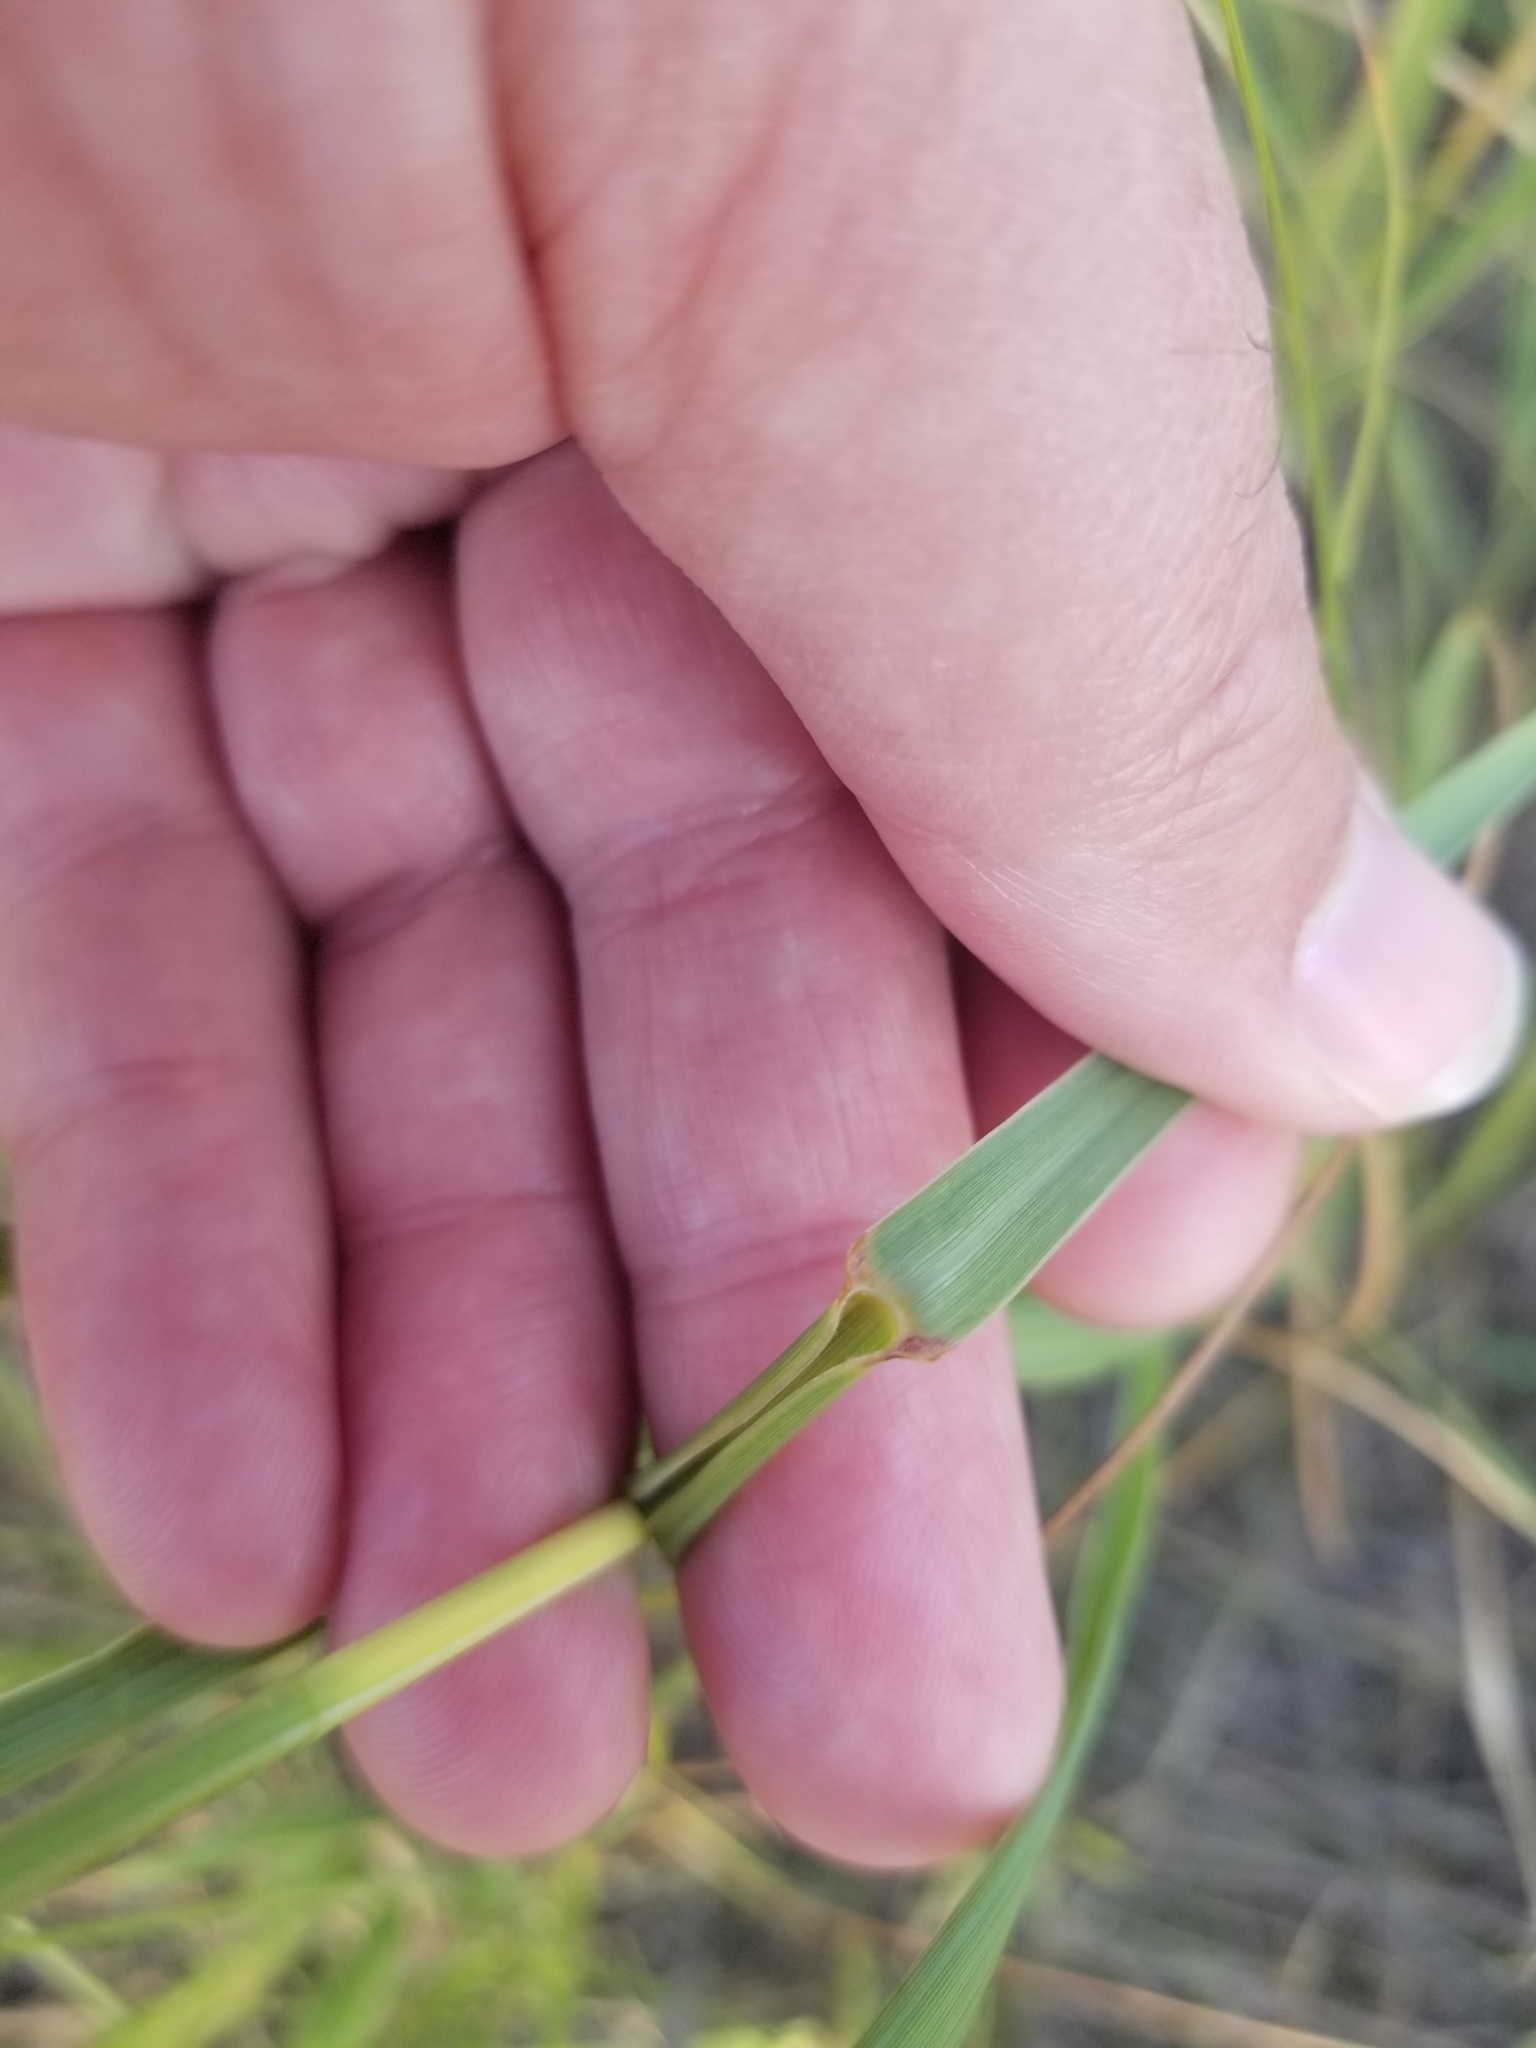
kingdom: Plantae
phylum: Tracheophyta
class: Liliopsida
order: Poales
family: Poaceae
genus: Sporobolus
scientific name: Sporobolus rigidus
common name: Prairie sandreed
